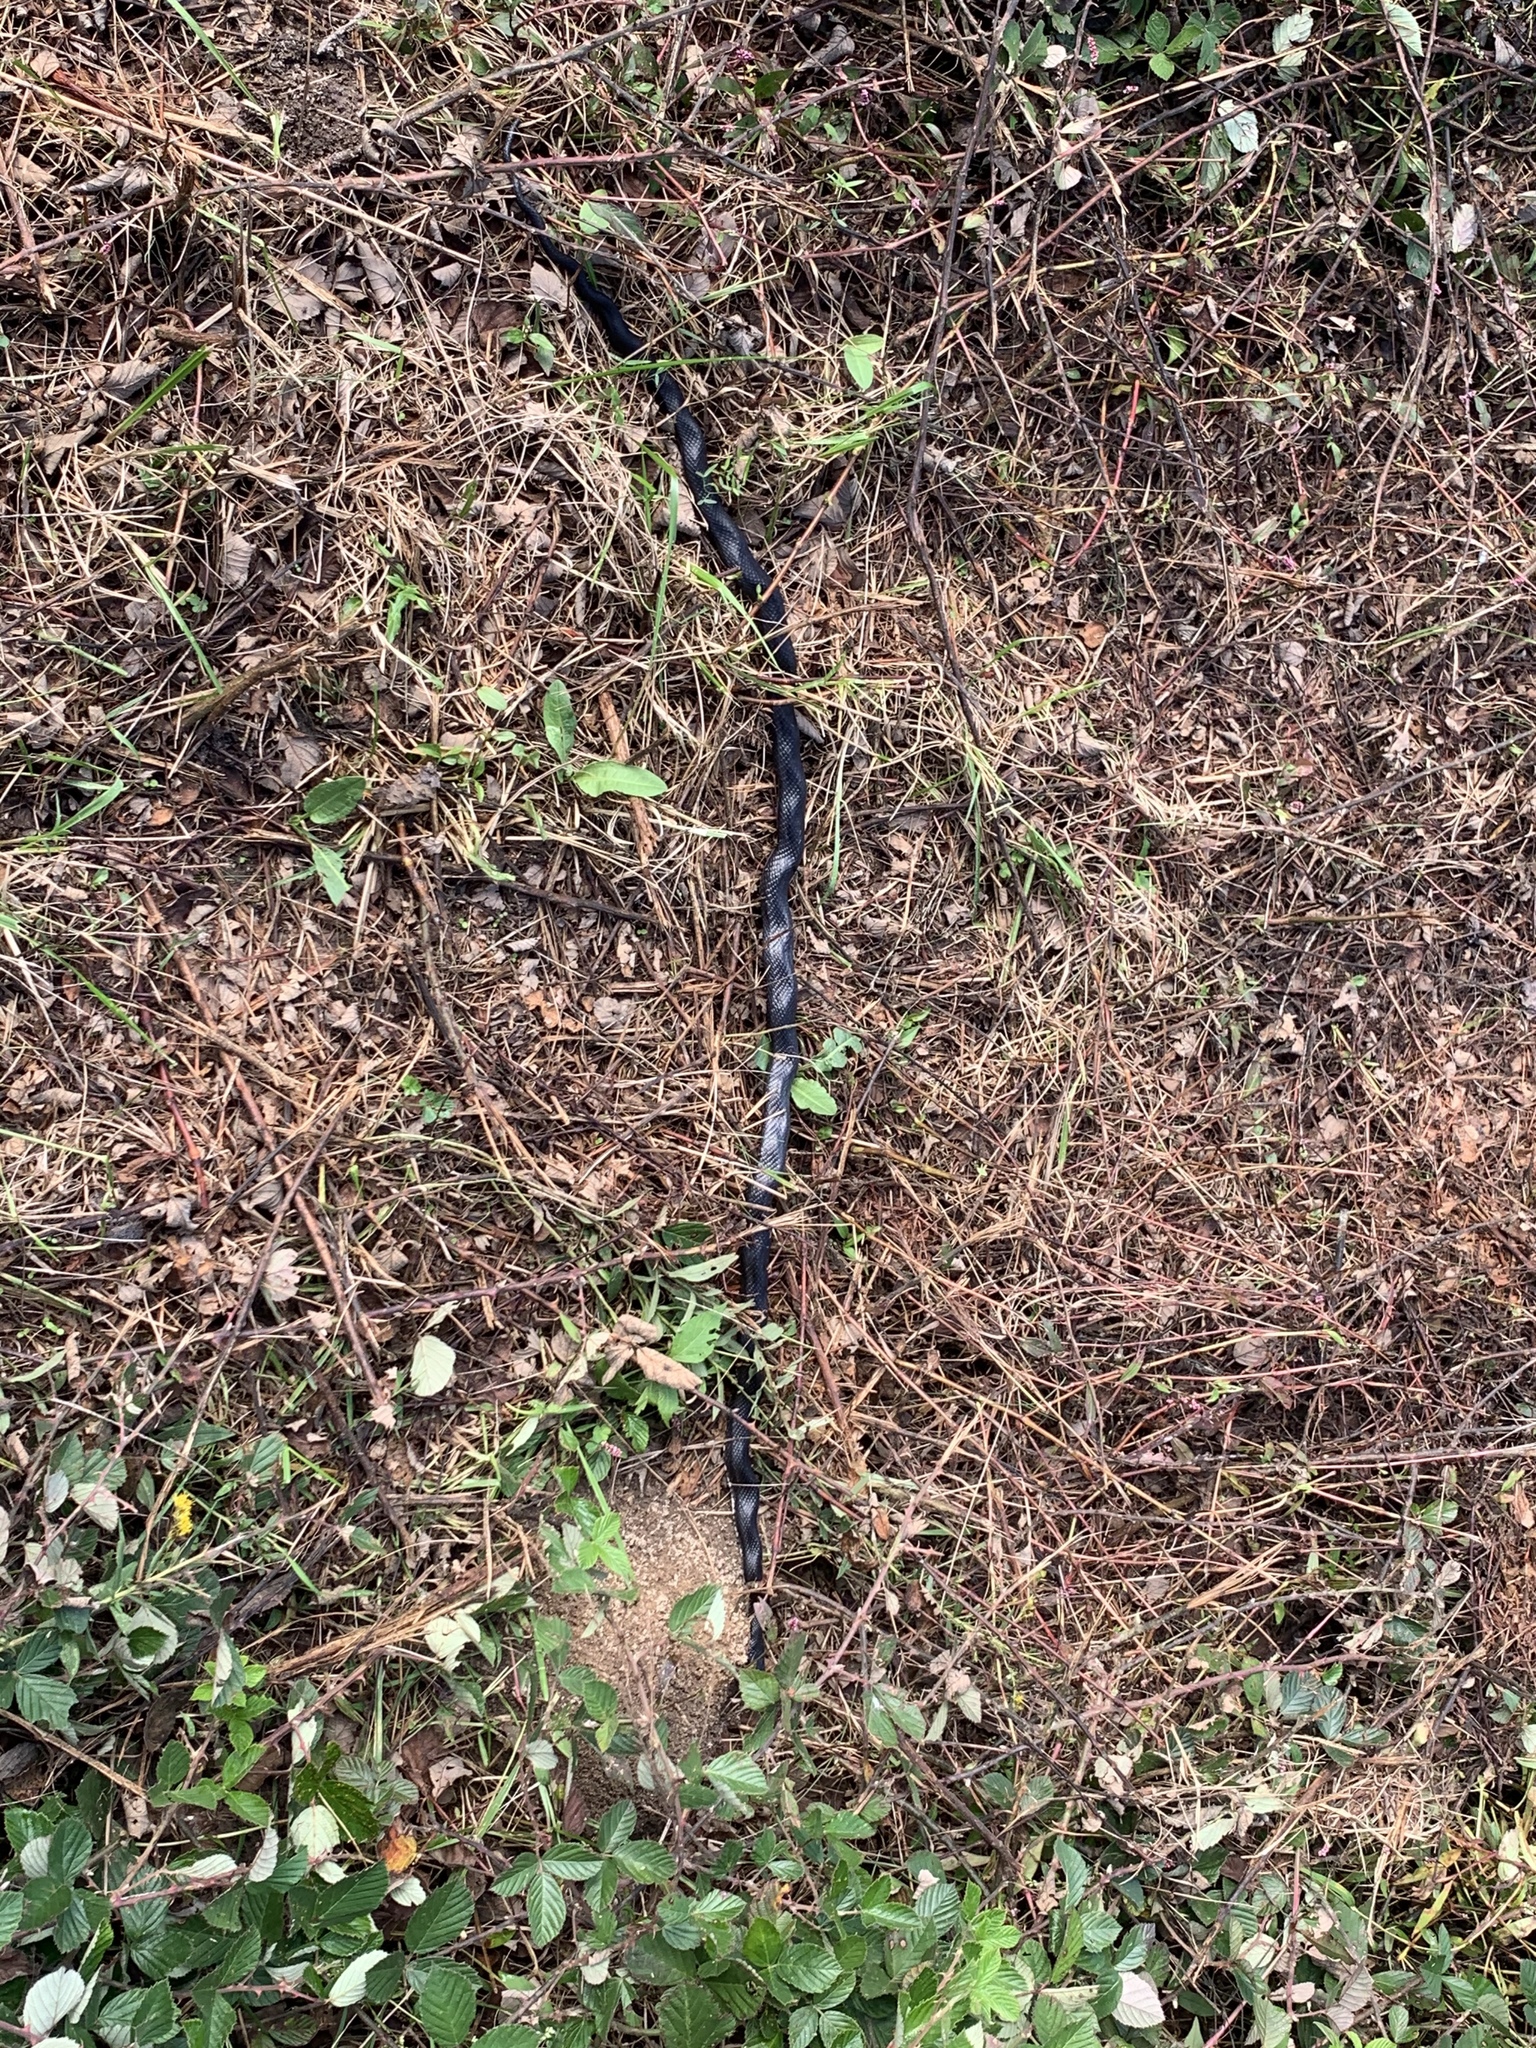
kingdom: Animalia
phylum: Chordata
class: Squamata
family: Colubridae
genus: Pantherophis
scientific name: Pantherophis alleghaniensis
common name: Eastern rat snake
